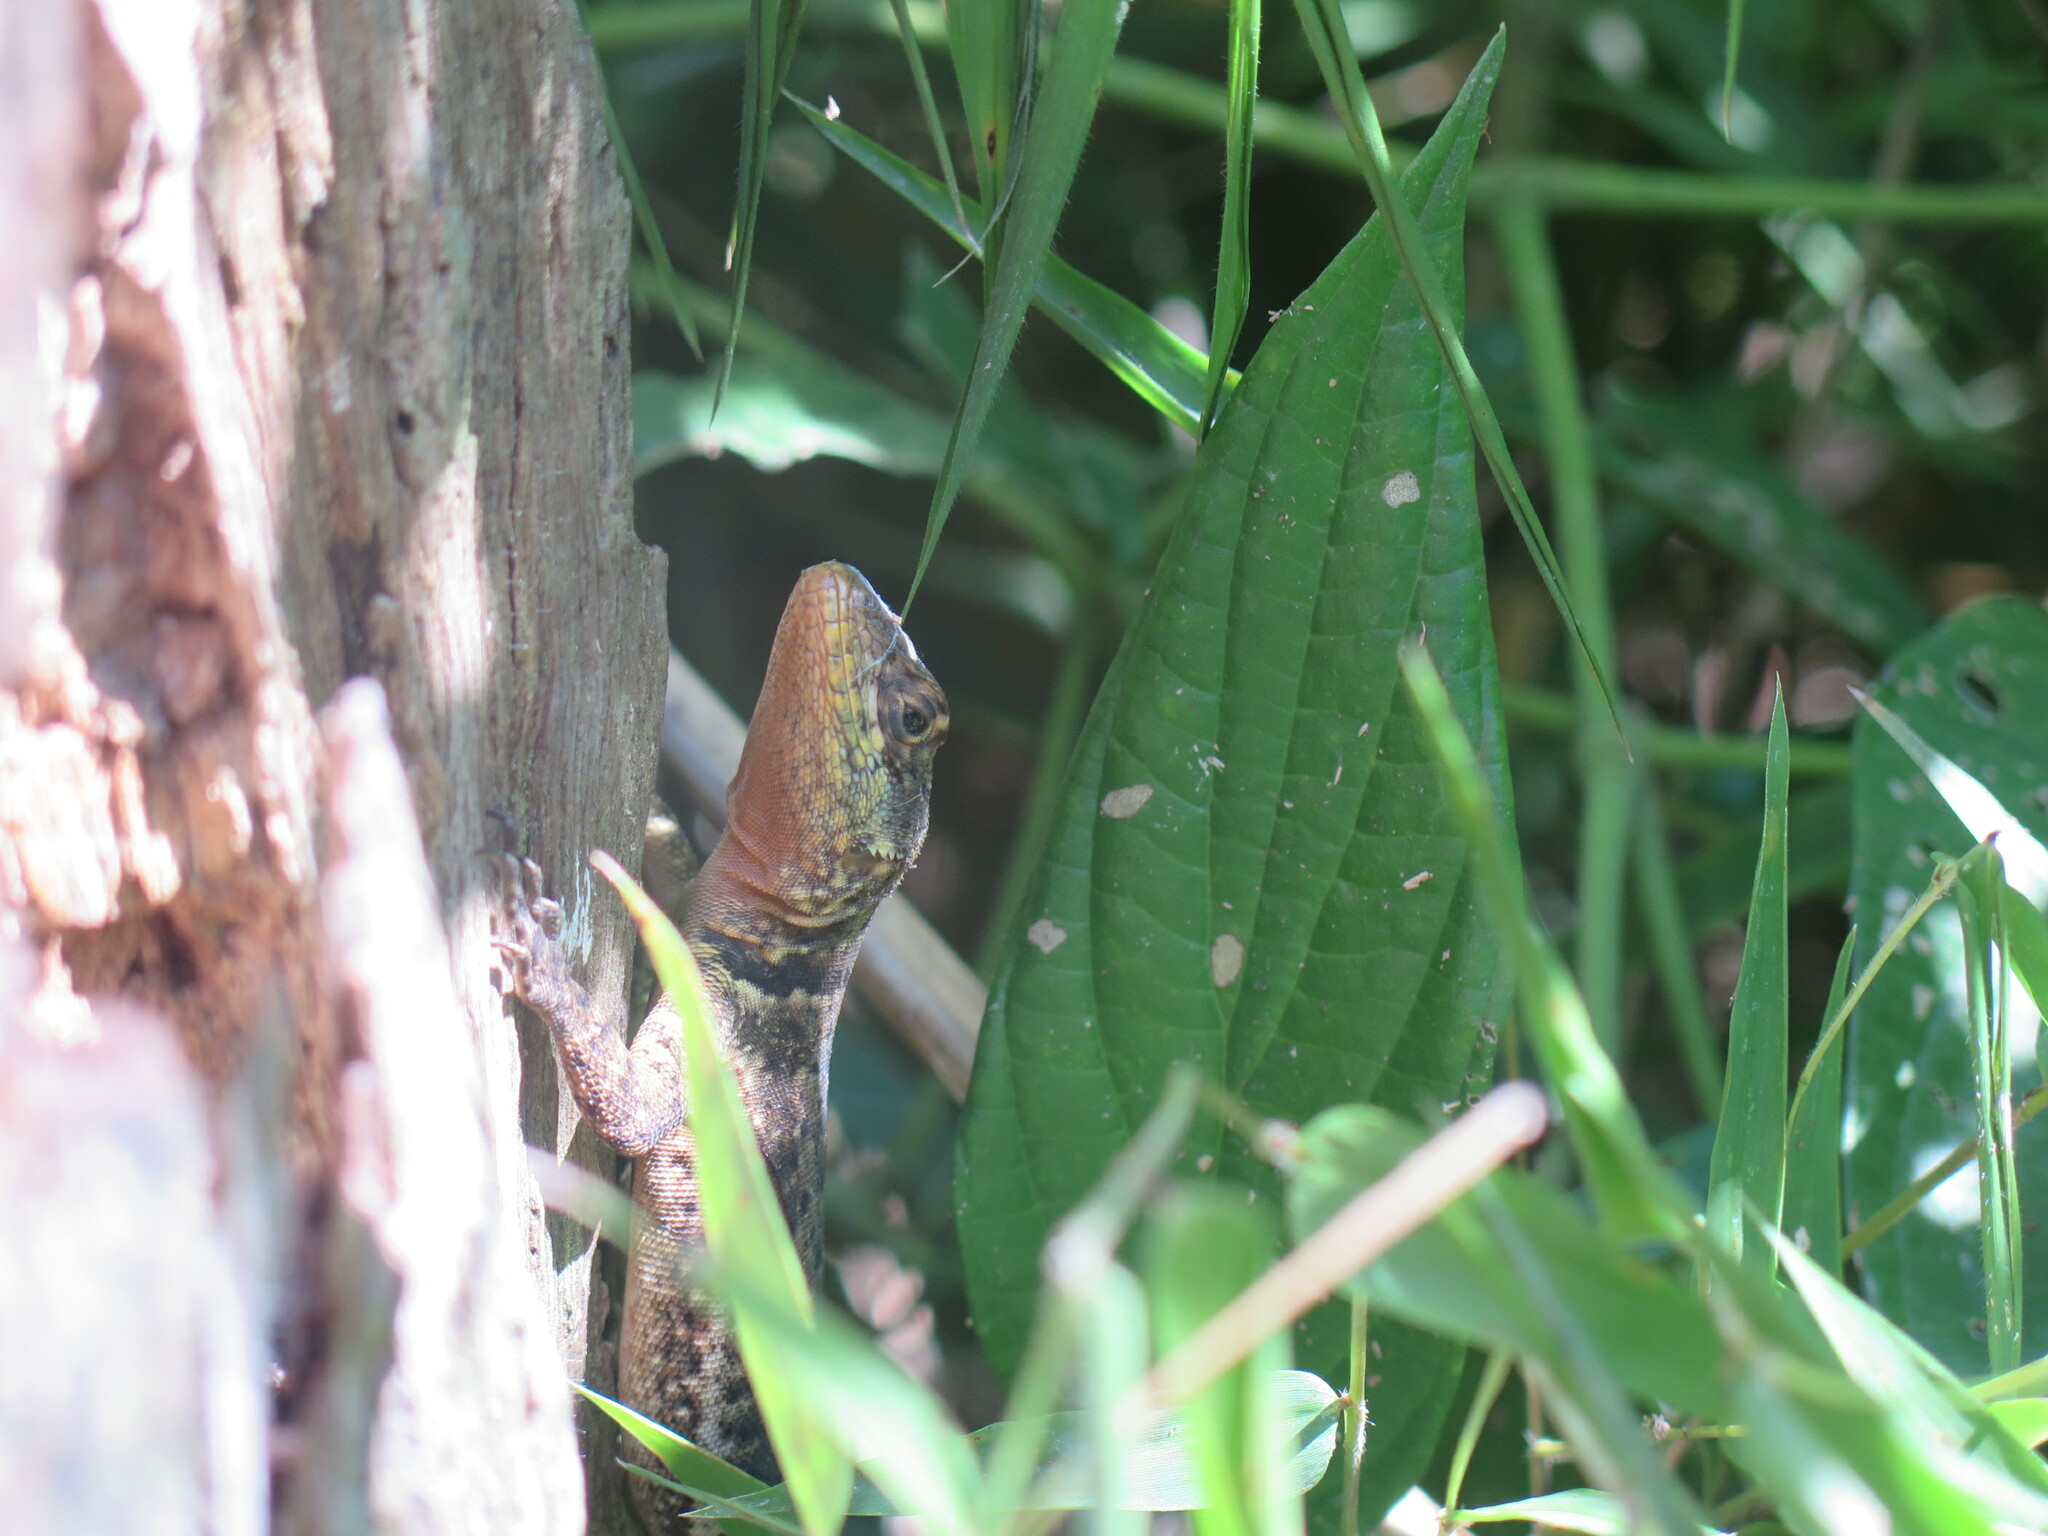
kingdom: Animalia
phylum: Chordata
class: Squamata
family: Tropiduridae
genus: Tropidurus
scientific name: Tropidurus catalanensis
